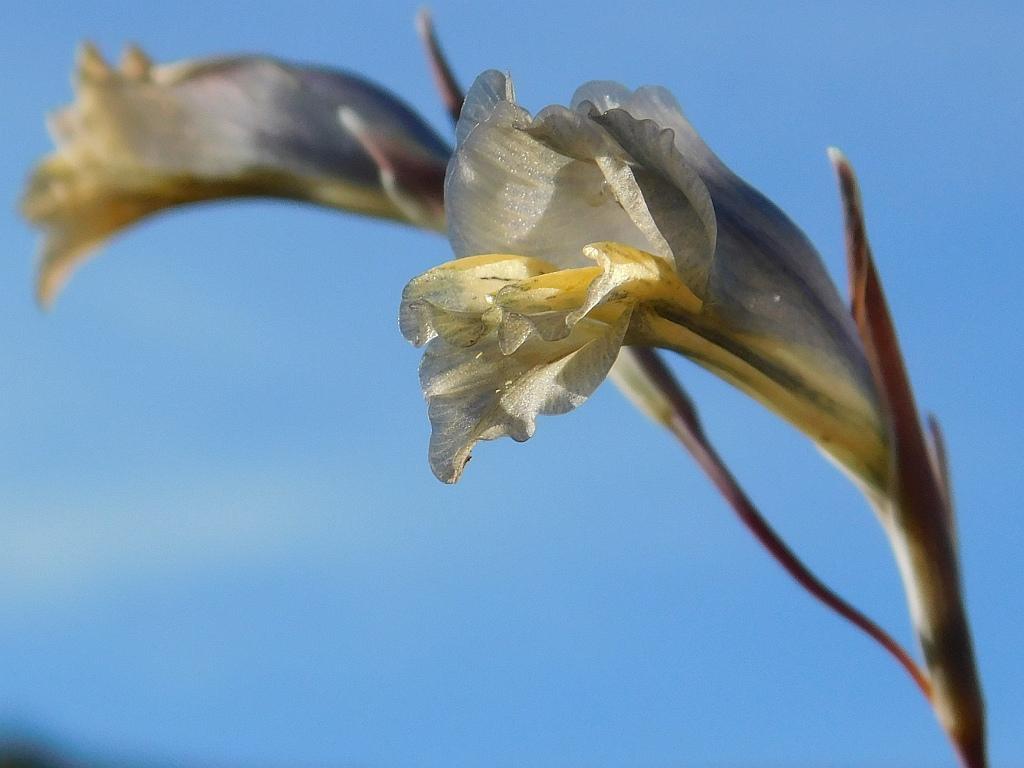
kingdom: Plantae
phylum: Tracheophyta
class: Liliopsida
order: Asparagales
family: Iridaceae
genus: Gladiolus
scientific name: Gladiolus gracilis
